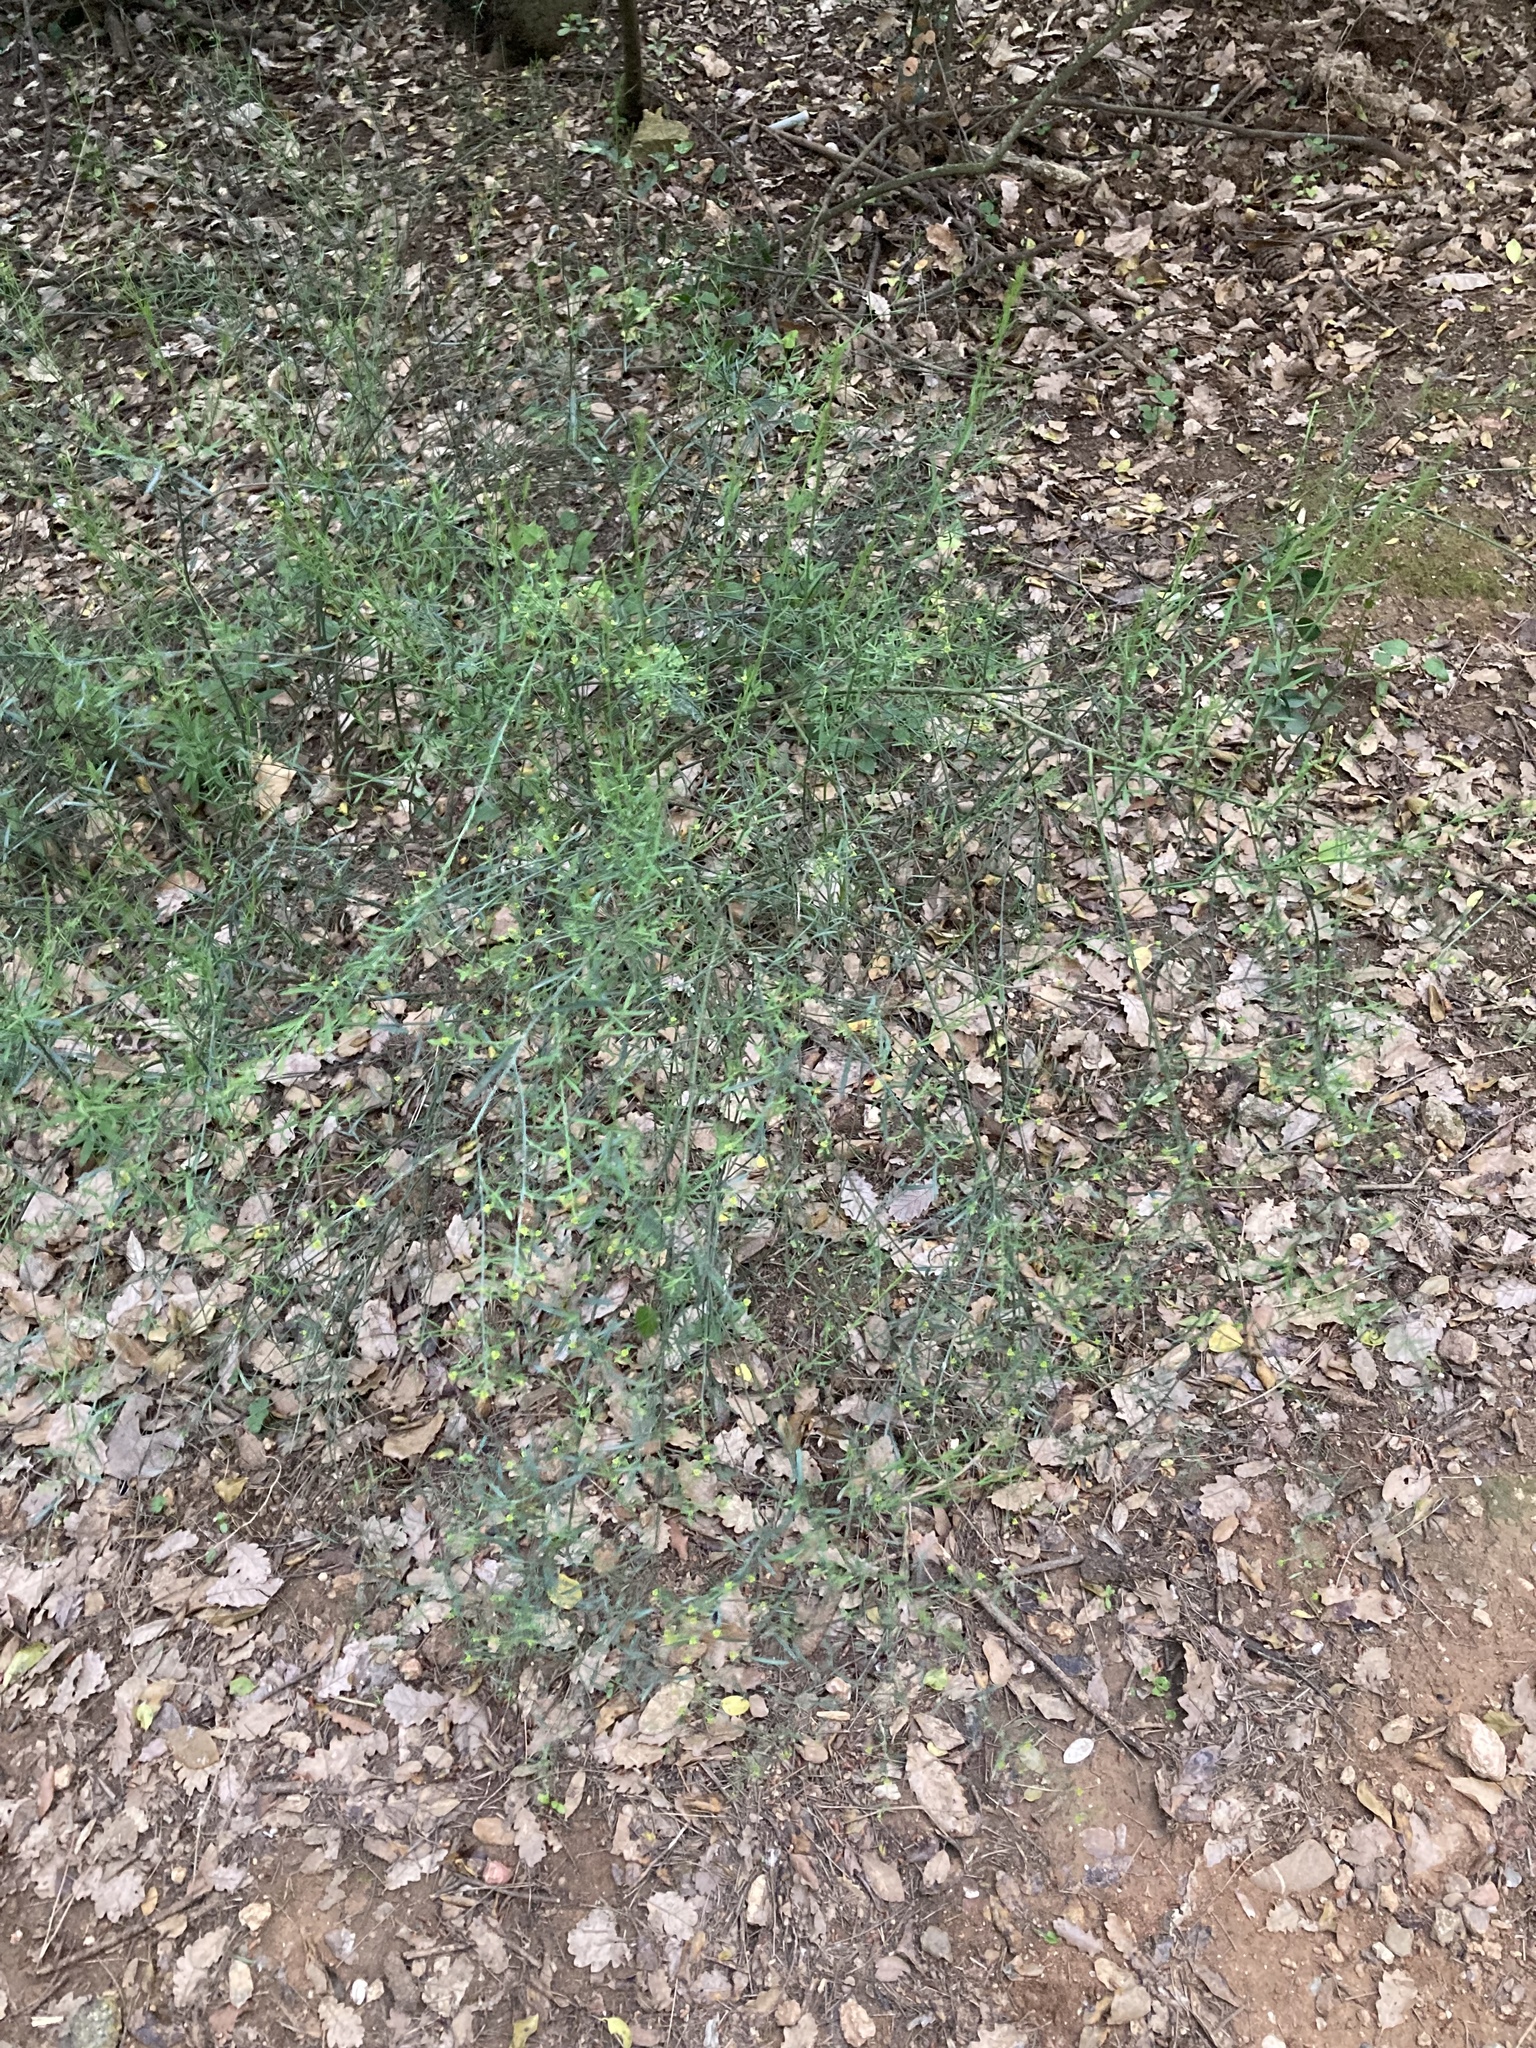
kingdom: Plantae
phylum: Tracheophyta
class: Magnoliopsida
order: Santalales
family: Santalaceae
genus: Osyris
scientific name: Osyris alba
